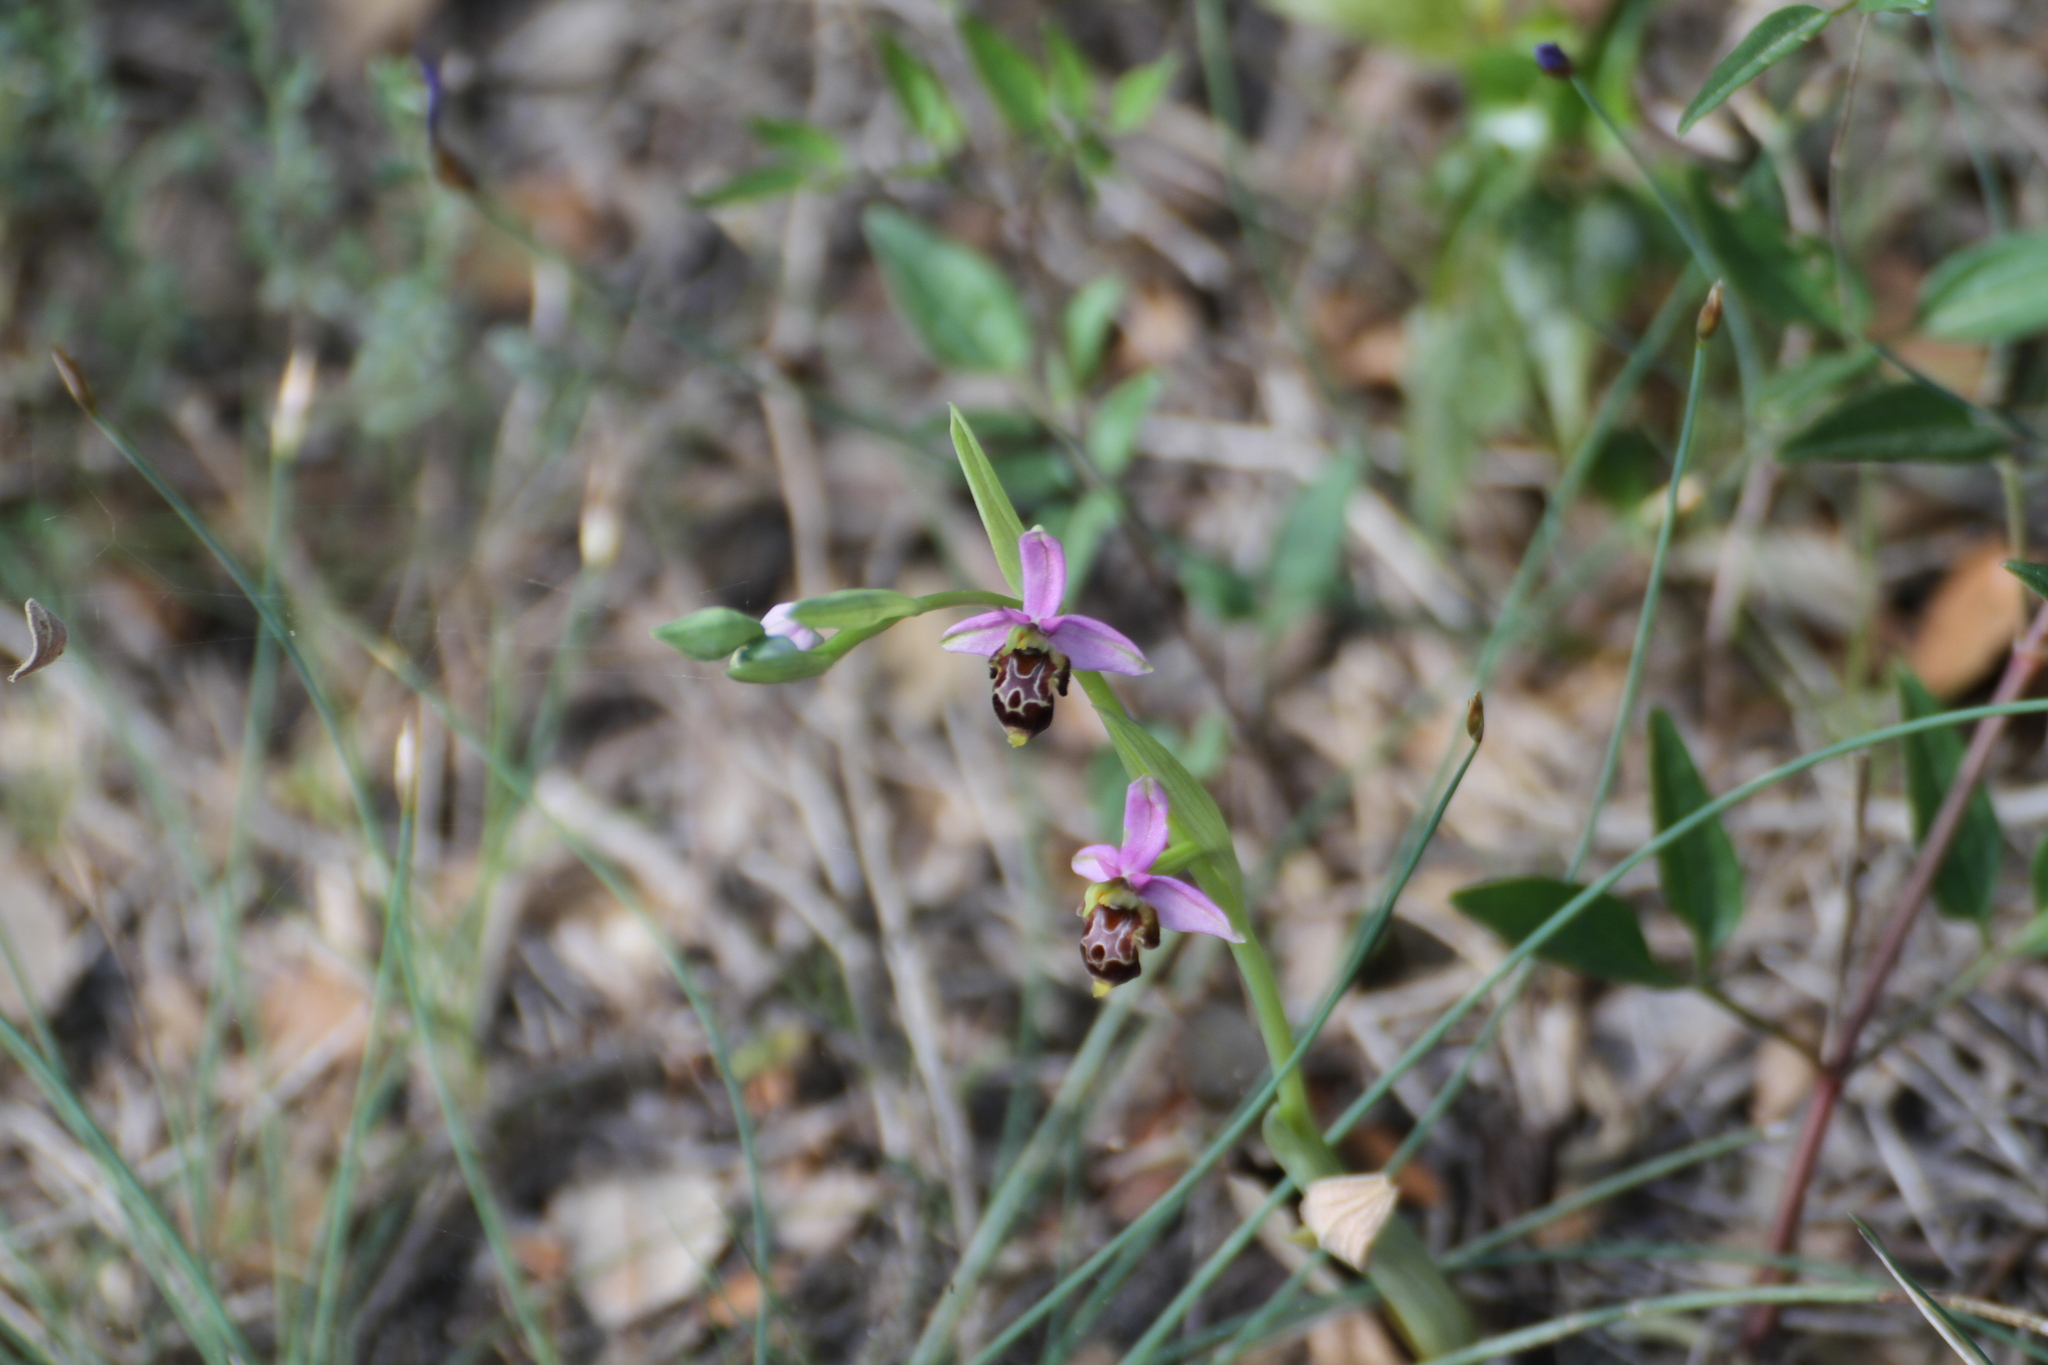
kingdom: Plantae
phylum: Tracheophyta
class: Liliopsida
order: Asparagales
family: Orchidaceae
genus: Ophrys
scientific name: Ophrys scolopax
